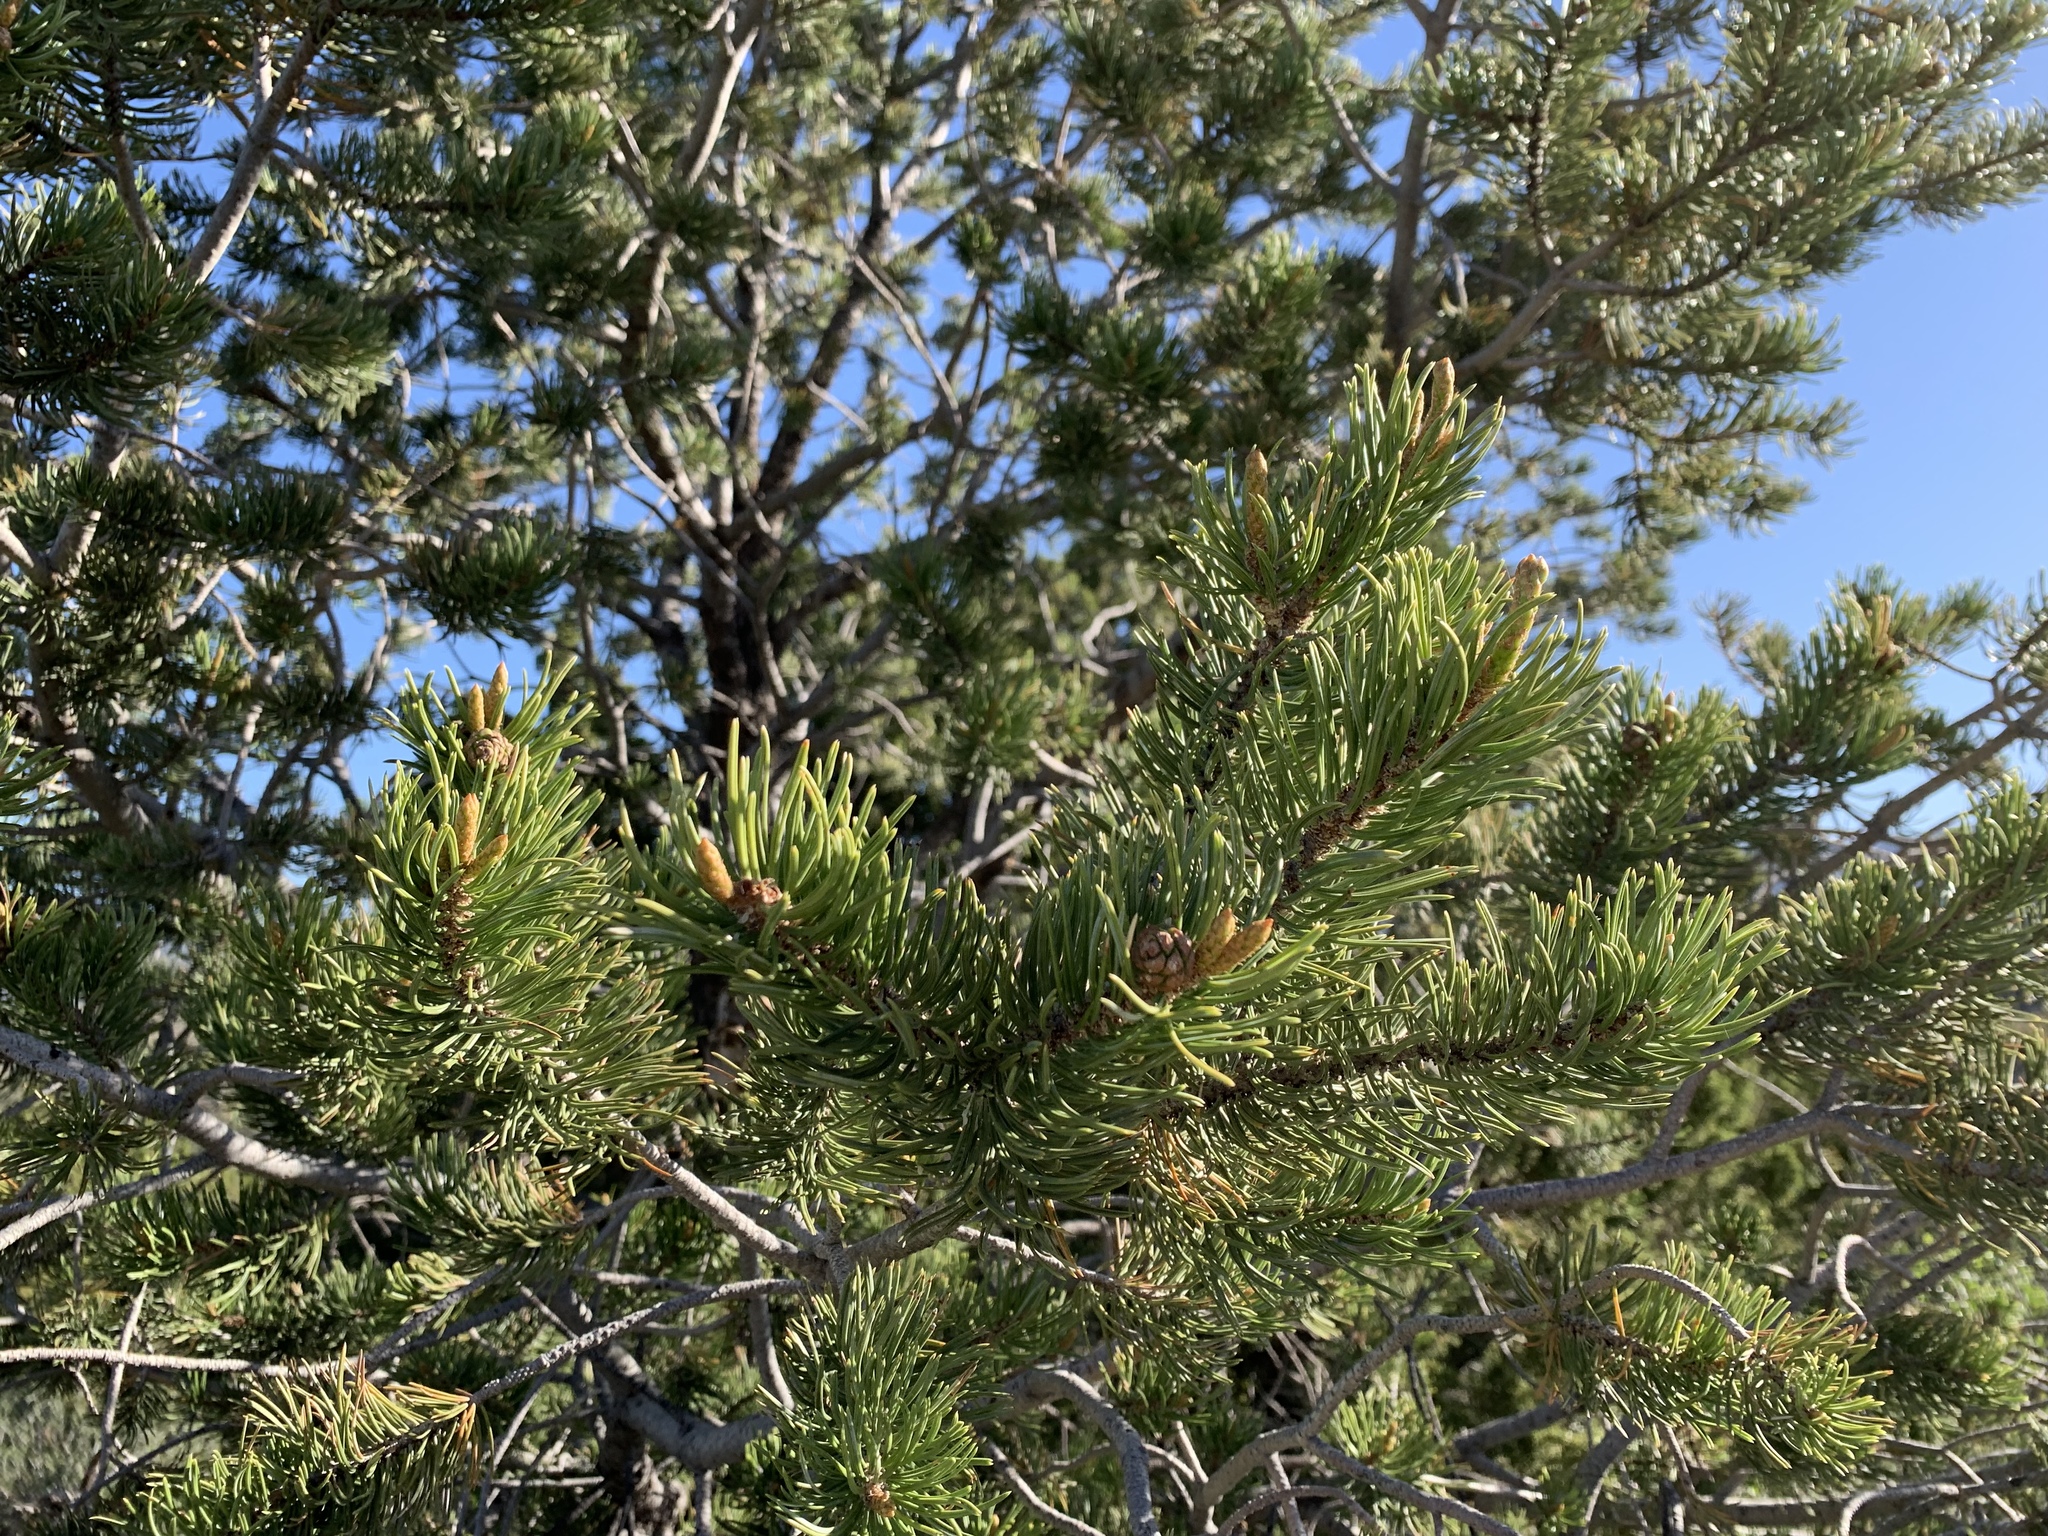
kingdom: Plantae
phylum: Tracheophyta
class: Pinopsida
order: Pinales
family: Pinaceae
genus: Pinus
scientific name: Pinus edulis
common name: Colorado pinyon
